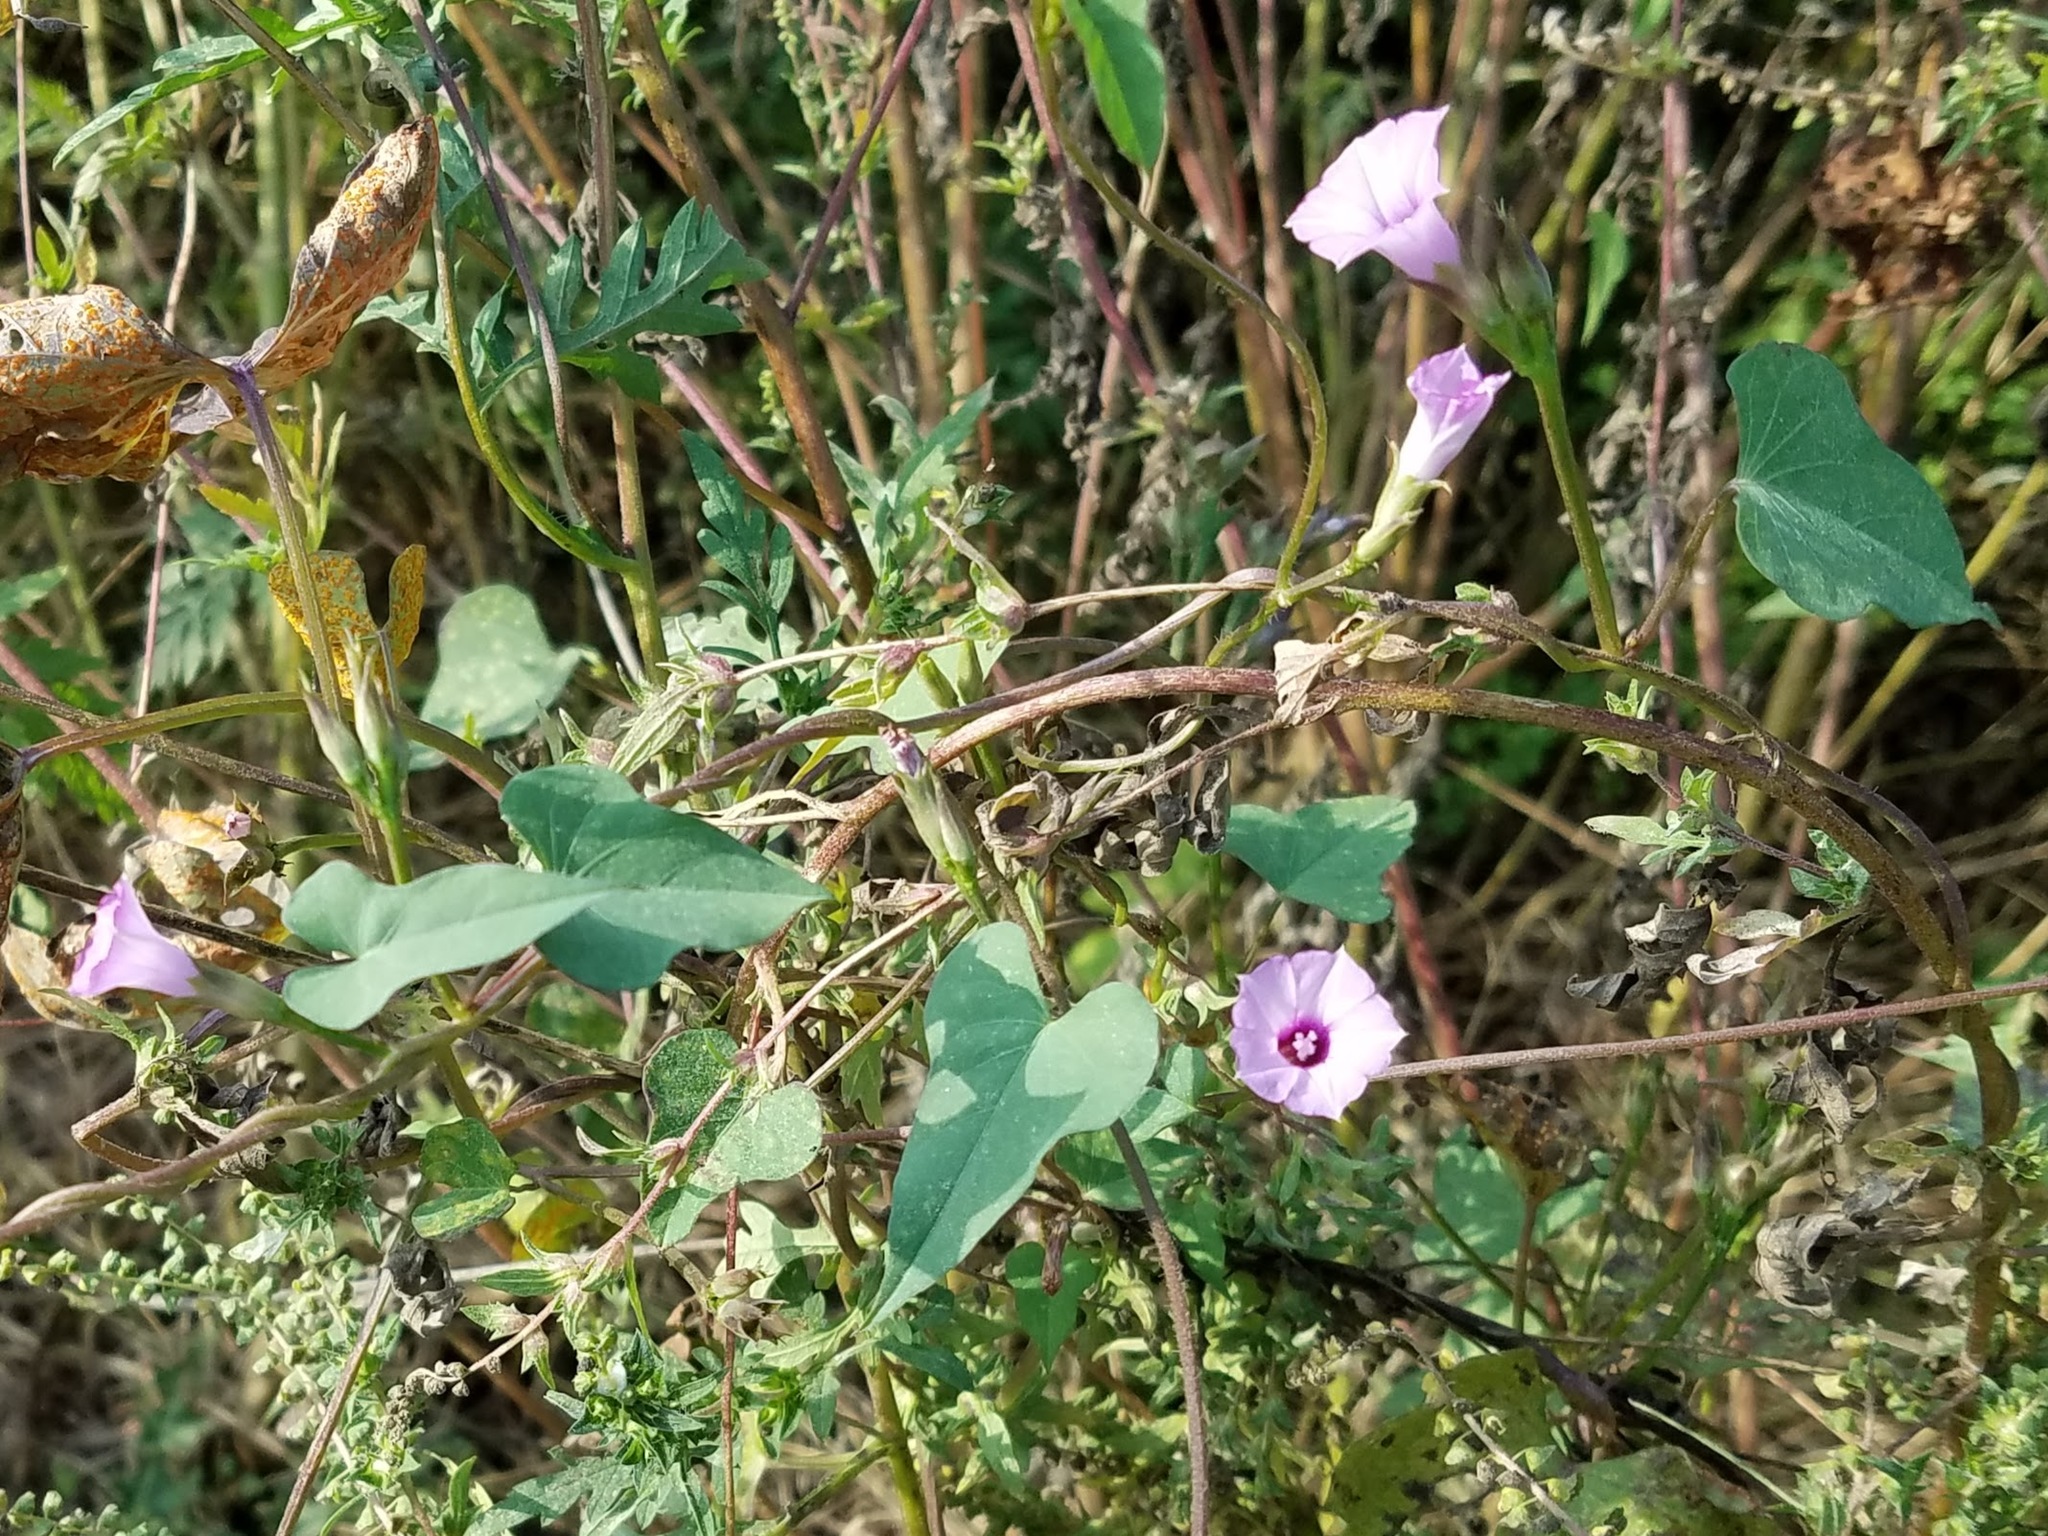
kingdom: Plantae
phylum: Tracheophyta
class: Magnoliopsida
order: Solanales
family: Convolvulaceae
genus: Ipomoea
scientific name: Ipomoea triloba
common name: Little-bell
